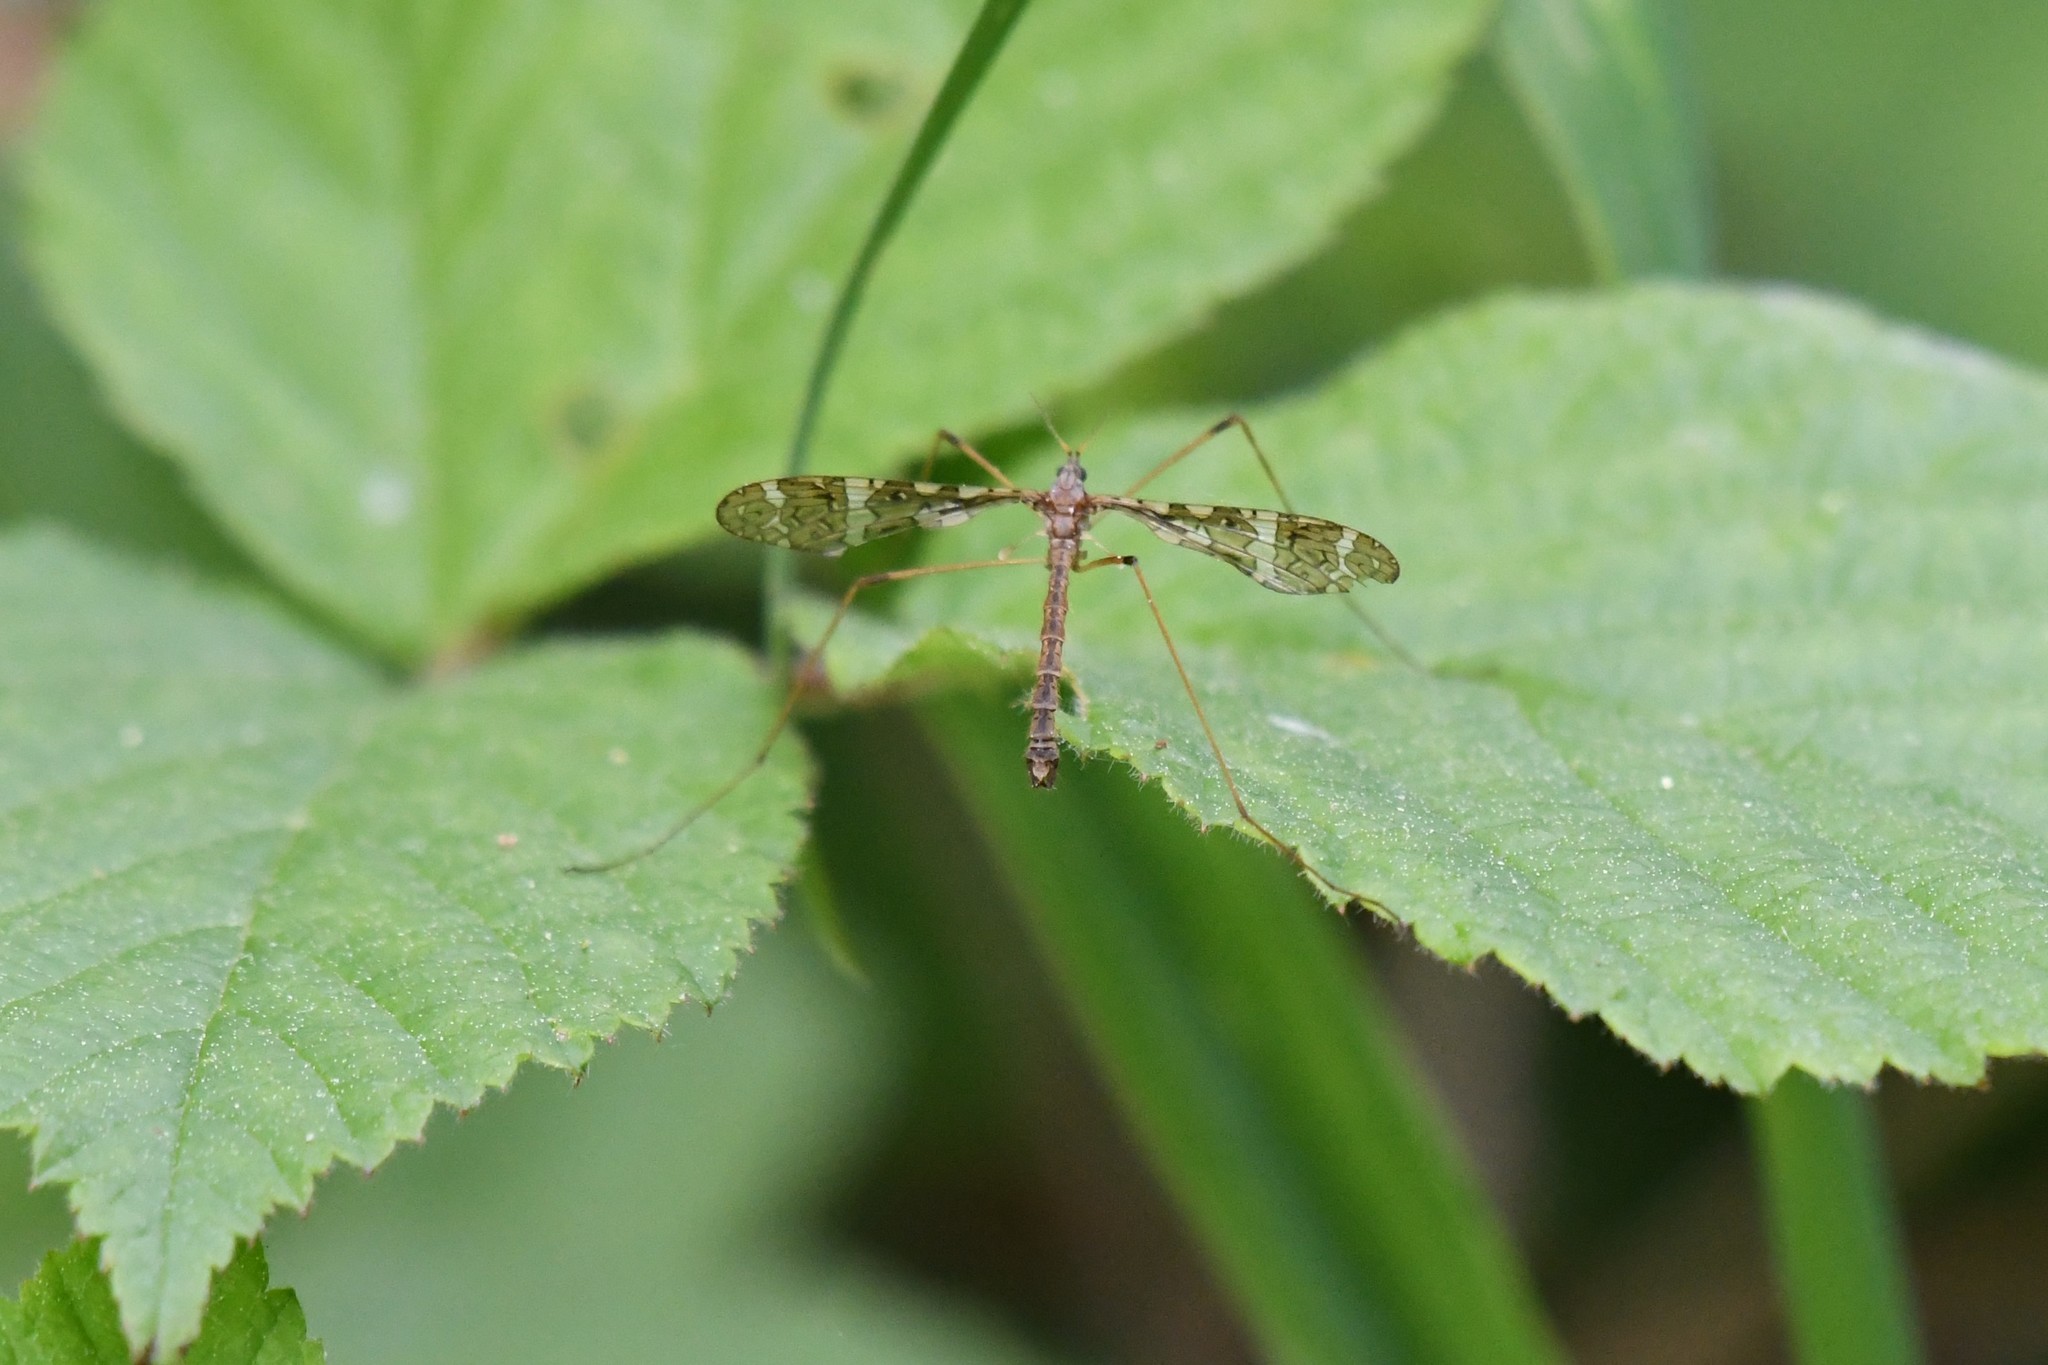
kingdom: Animalia
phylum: Arthropoda
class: Insecta
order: Diptera
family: Limoniidae
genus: Epiphragma
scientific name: Epiphragma fasciapenne
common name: Band-winged crane fly
